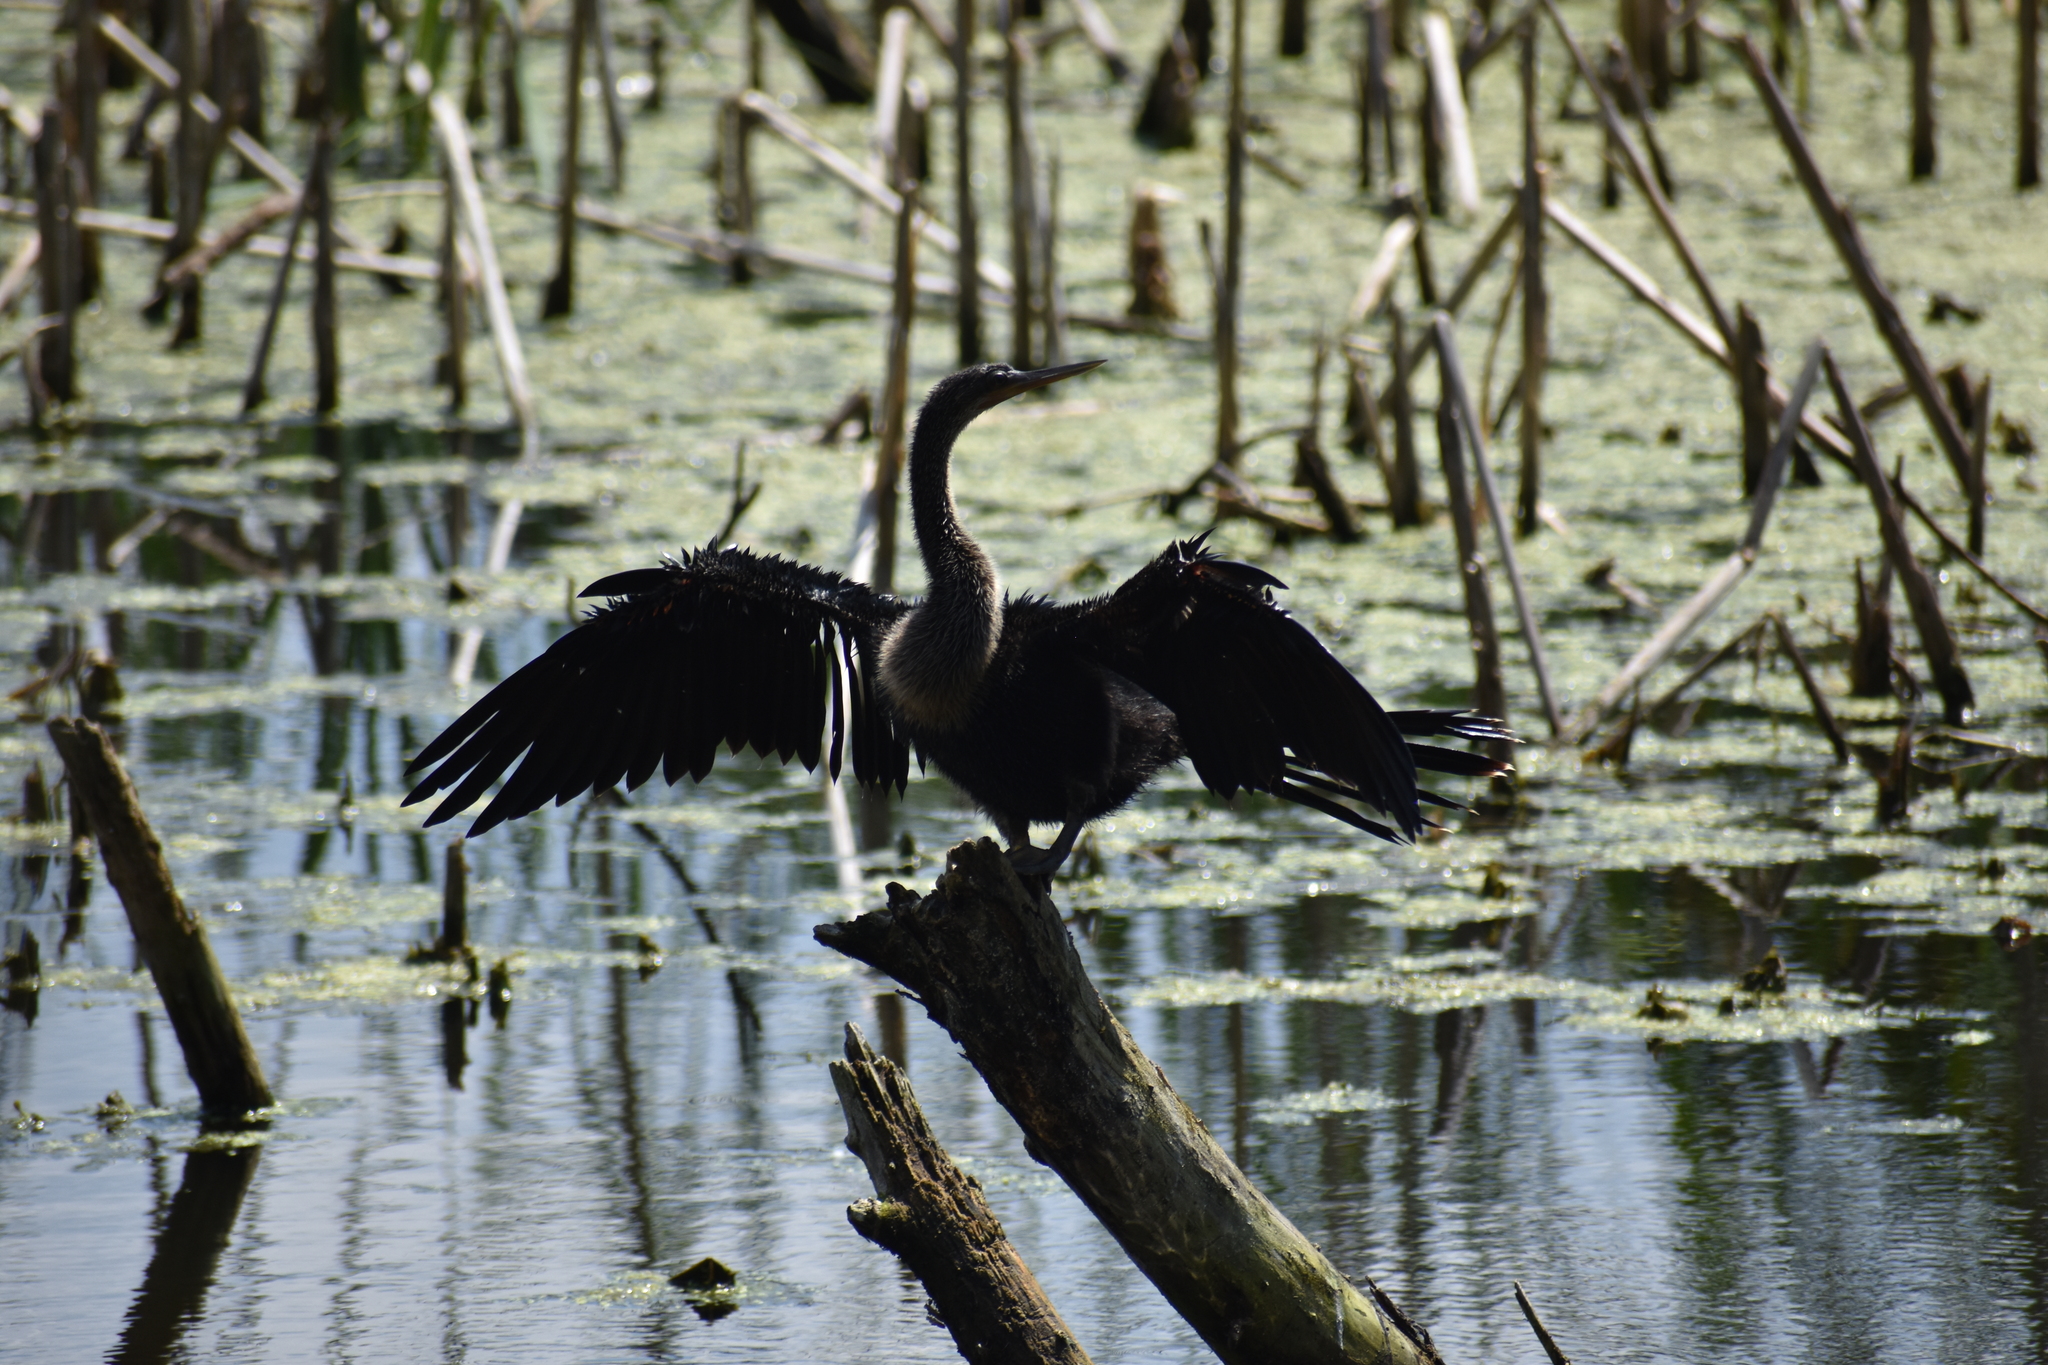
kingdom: Animalia
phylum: Chordata
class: Aves
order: Suliformes
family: Anhingidae
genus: Anhinga
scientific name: Anhinga anhinga
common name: Anhinga
